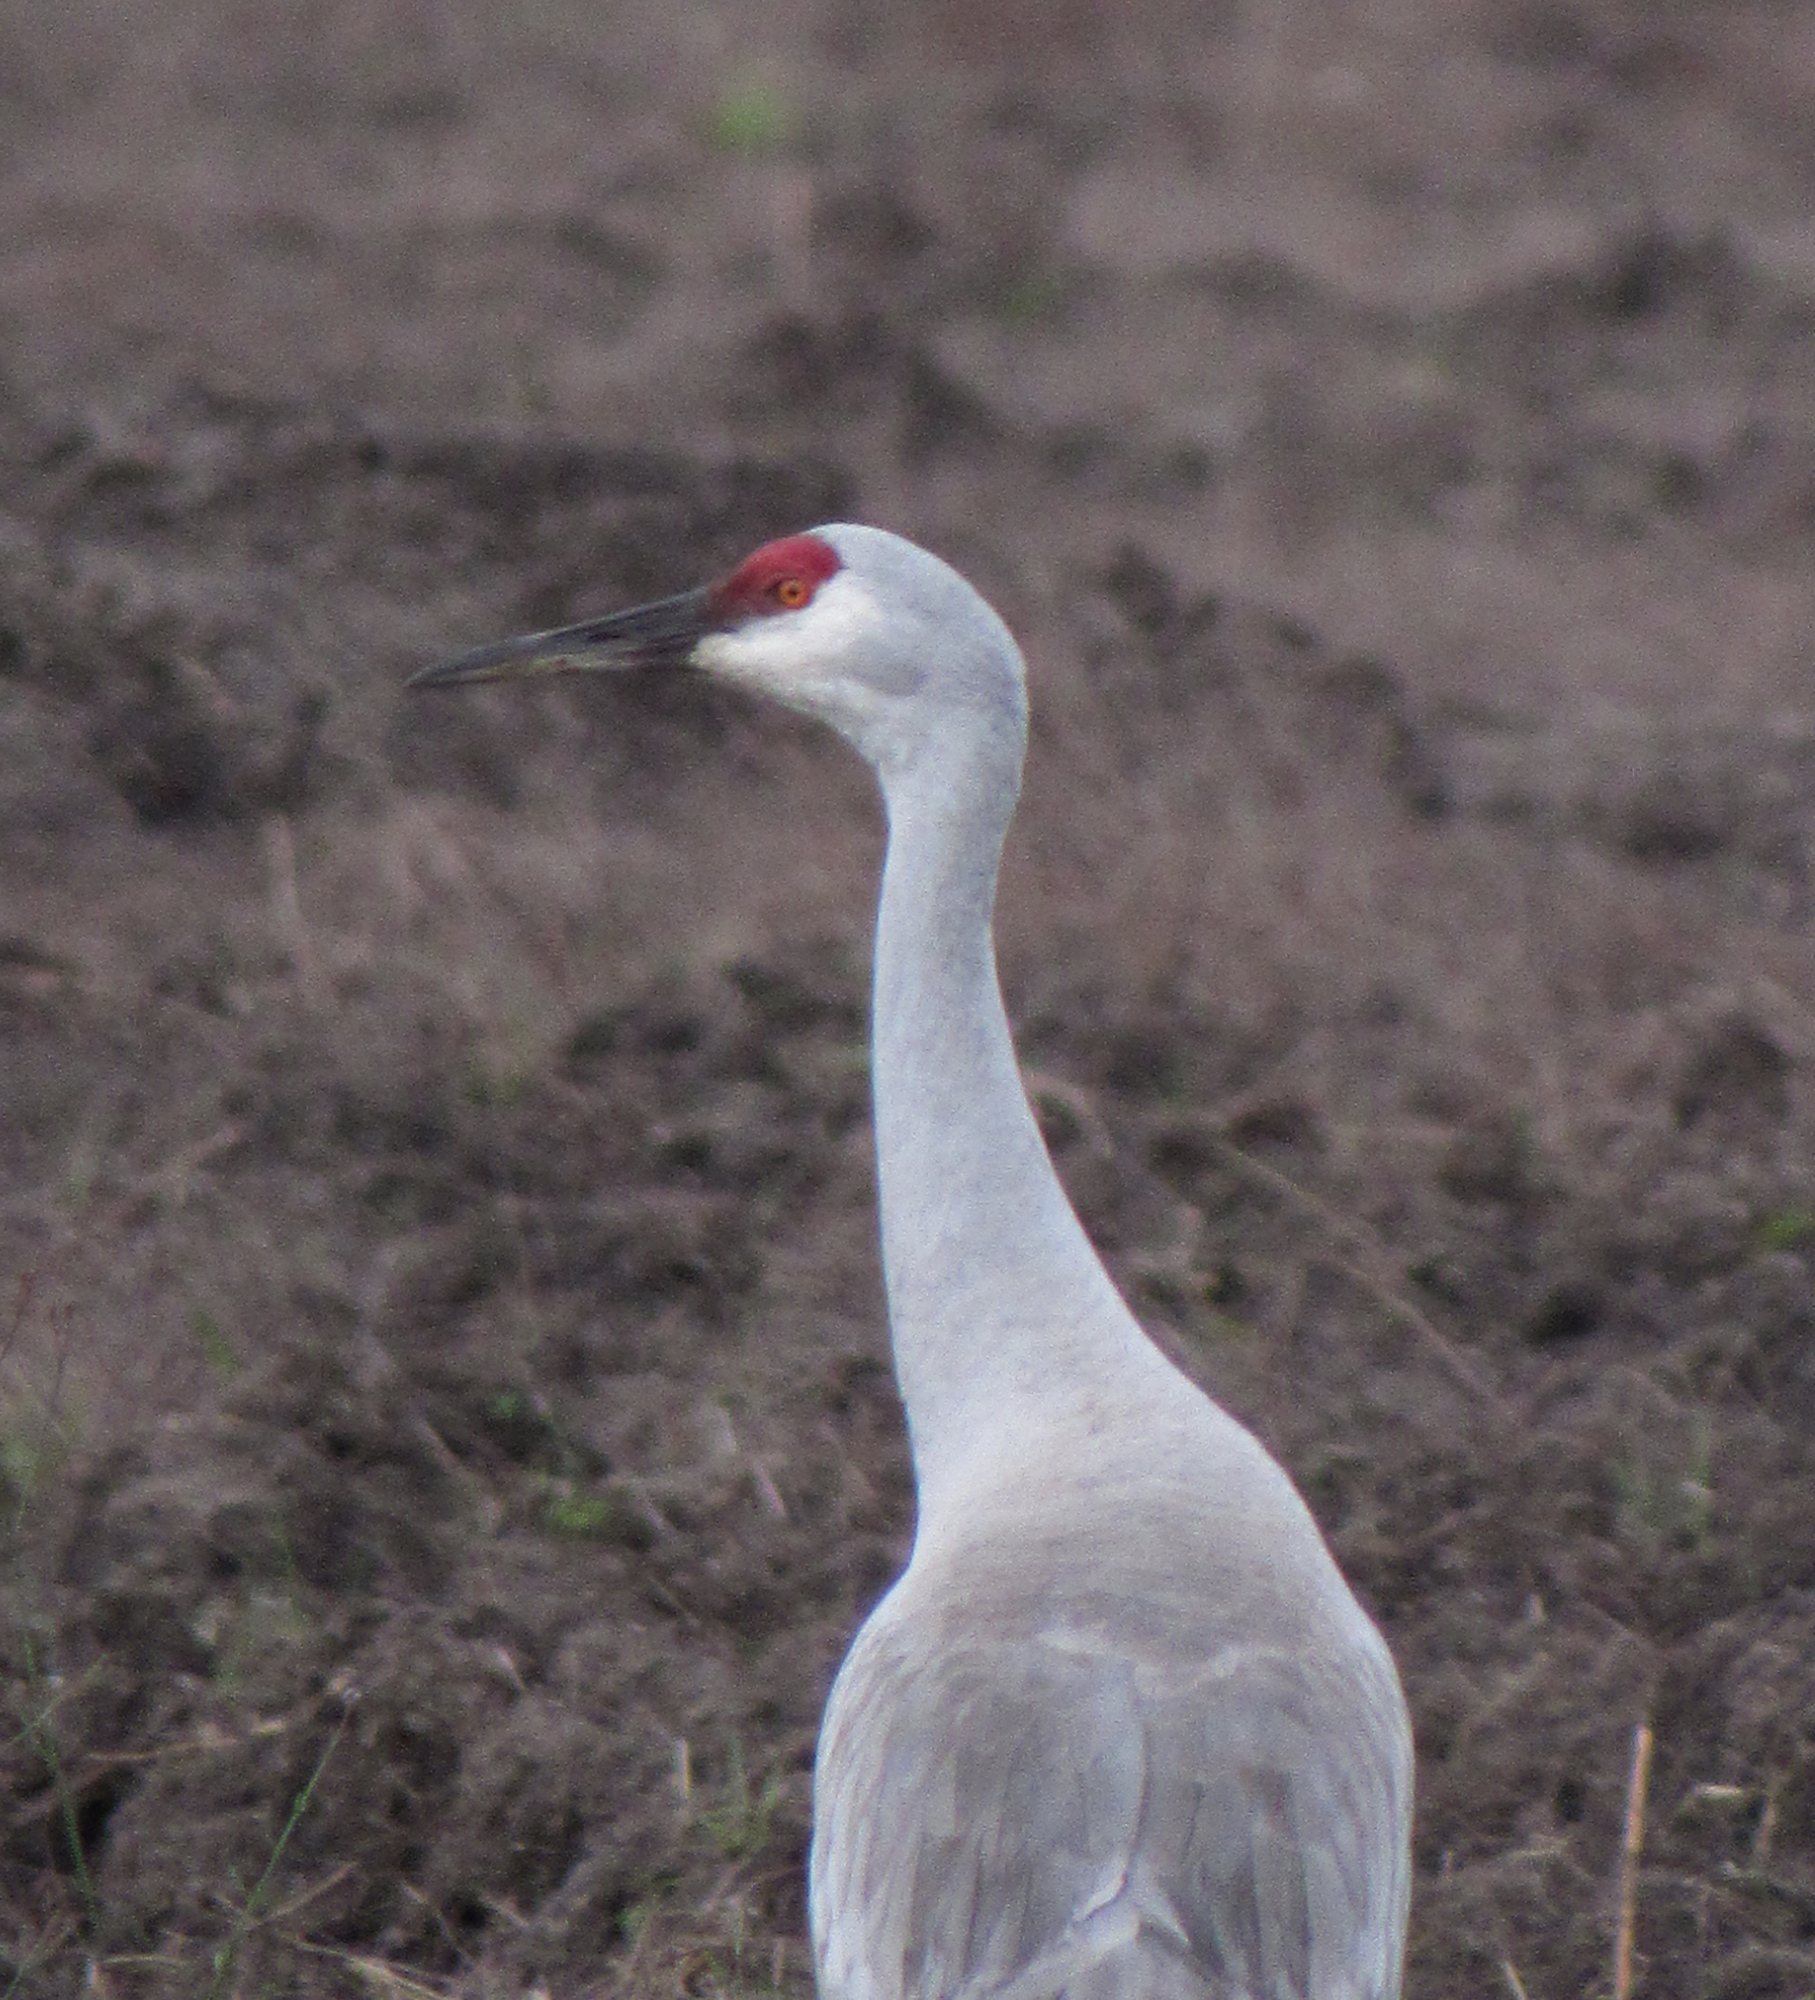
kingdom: Animalia
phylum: Chordata
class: Aves
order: Gruiformes
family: Gruidae
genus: Grus
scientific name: Grus canadensis
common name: Sandhill crane
